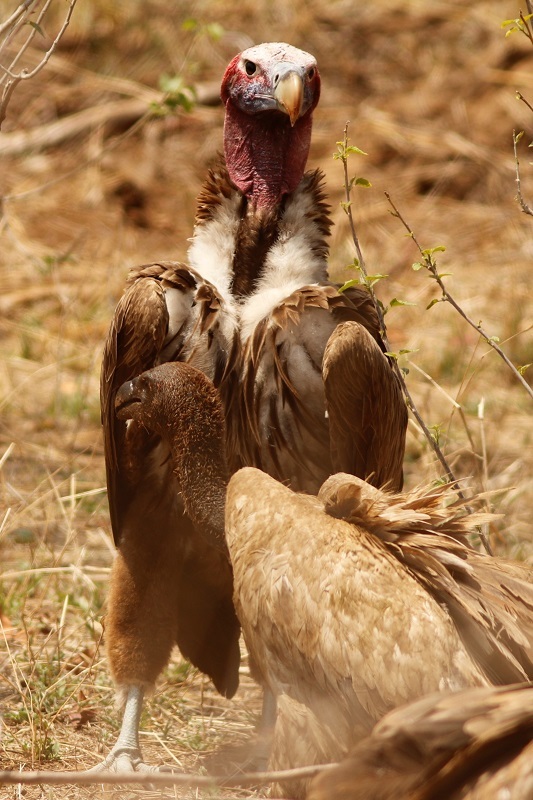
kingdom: Animalia
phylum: Chordata
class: Aves
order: Accipitriformes
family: Accipitridae
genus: Torgos
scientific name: Torgos tracheliotos
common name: Lappet-faced vulture
